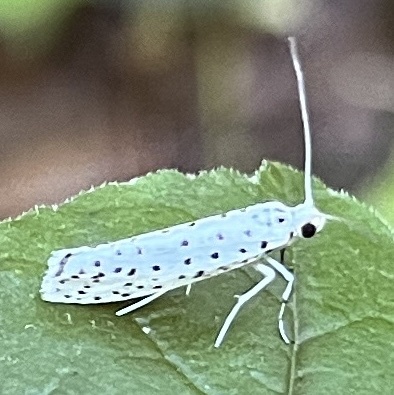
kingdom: Animalia
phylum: Arthropoda
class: Insecta
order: Lepidoptera
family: Yponomeutidae
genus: Yponomeuta
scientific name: Yponomeuta multipunctella
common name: American ermine moth
